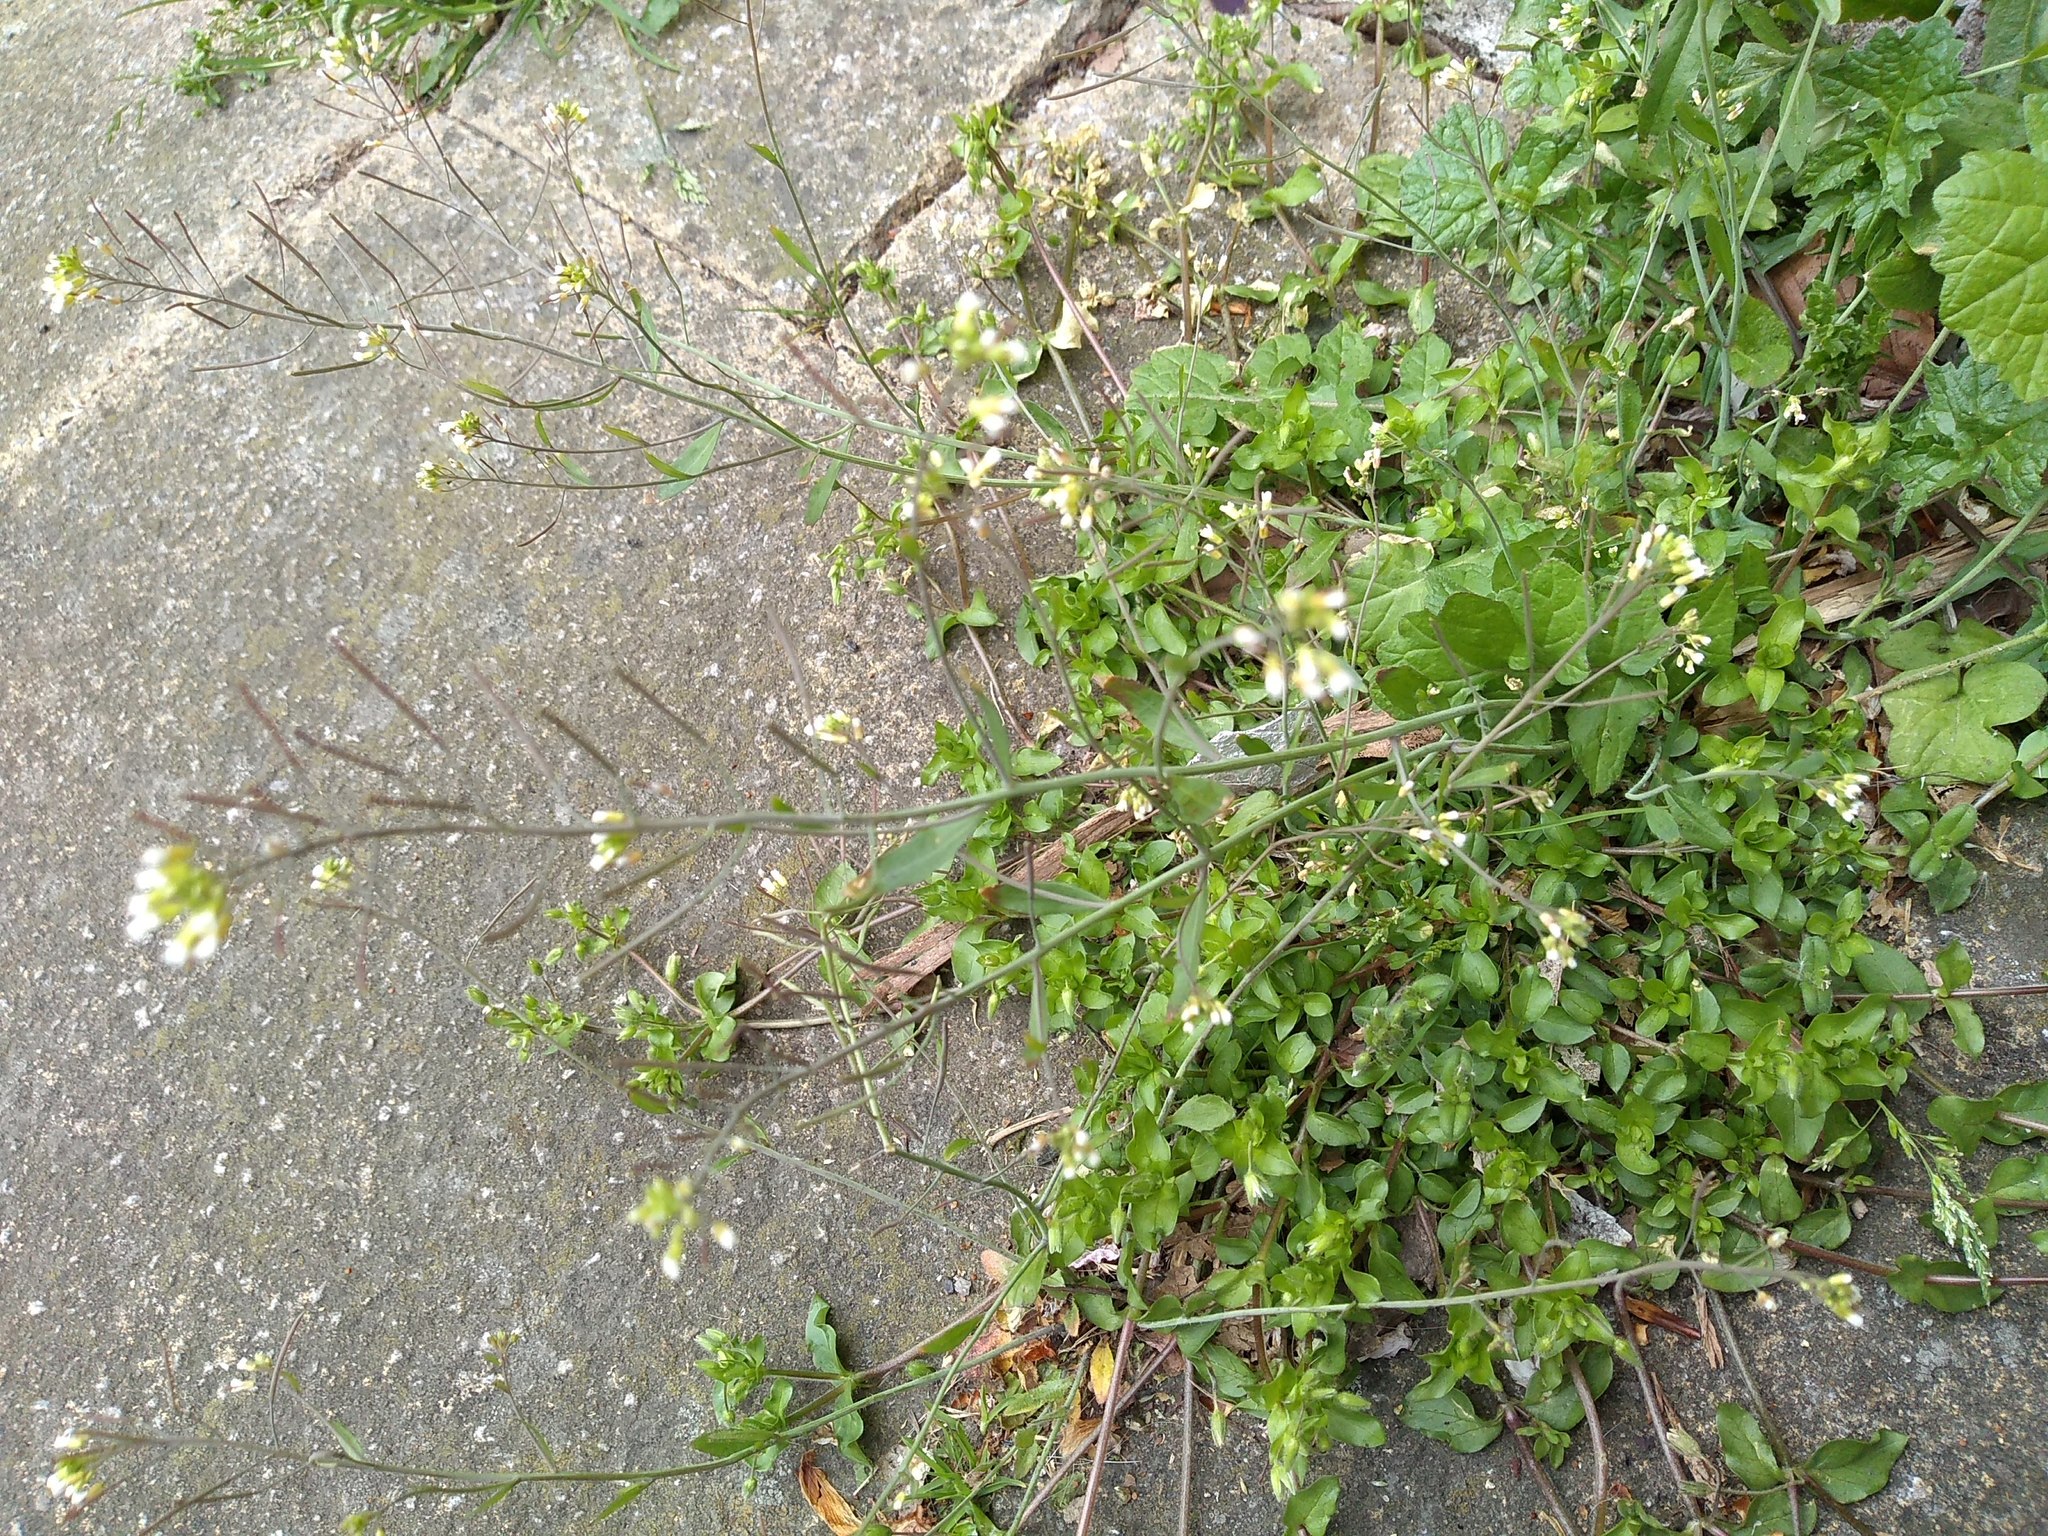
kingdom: Plantae
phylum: Tracheophyta
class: Magnoliopsida
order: Brassicales
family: Brassicaceae
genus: Arabidopsis
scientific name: Arabidopsis thaliana
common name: Thale cress
